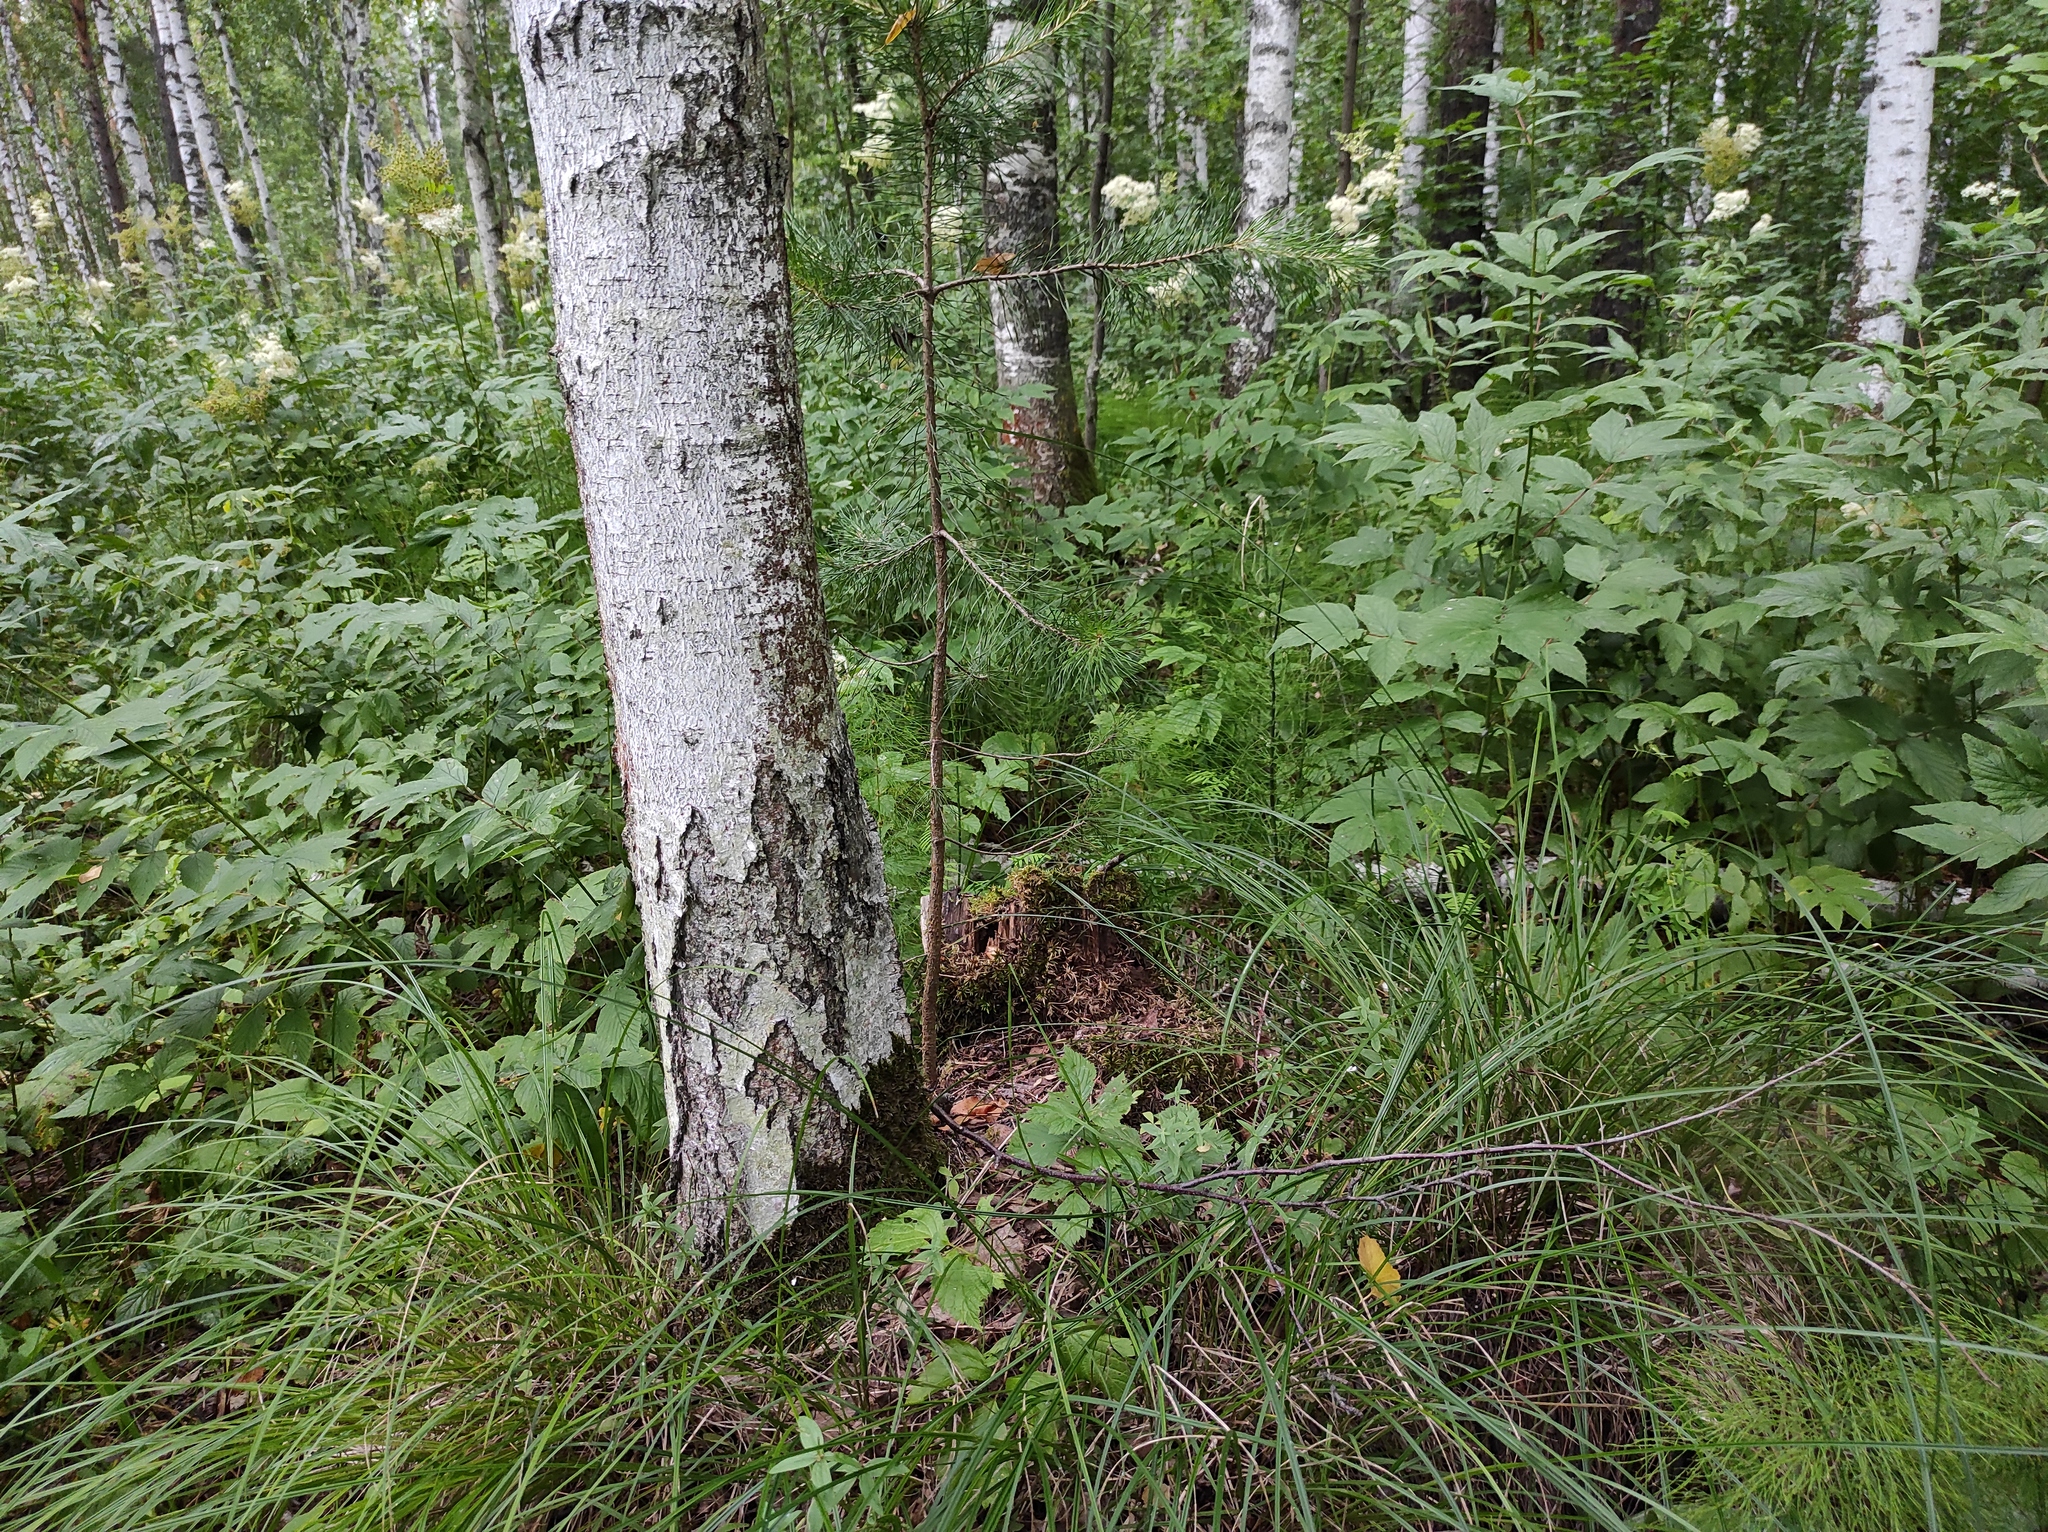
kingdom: Plantae
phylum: Tracheophyta
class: Magnoliopsida
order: Fagales
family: Betulaceae
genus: Betula
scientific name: Betula pubescens
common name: Downy birch
